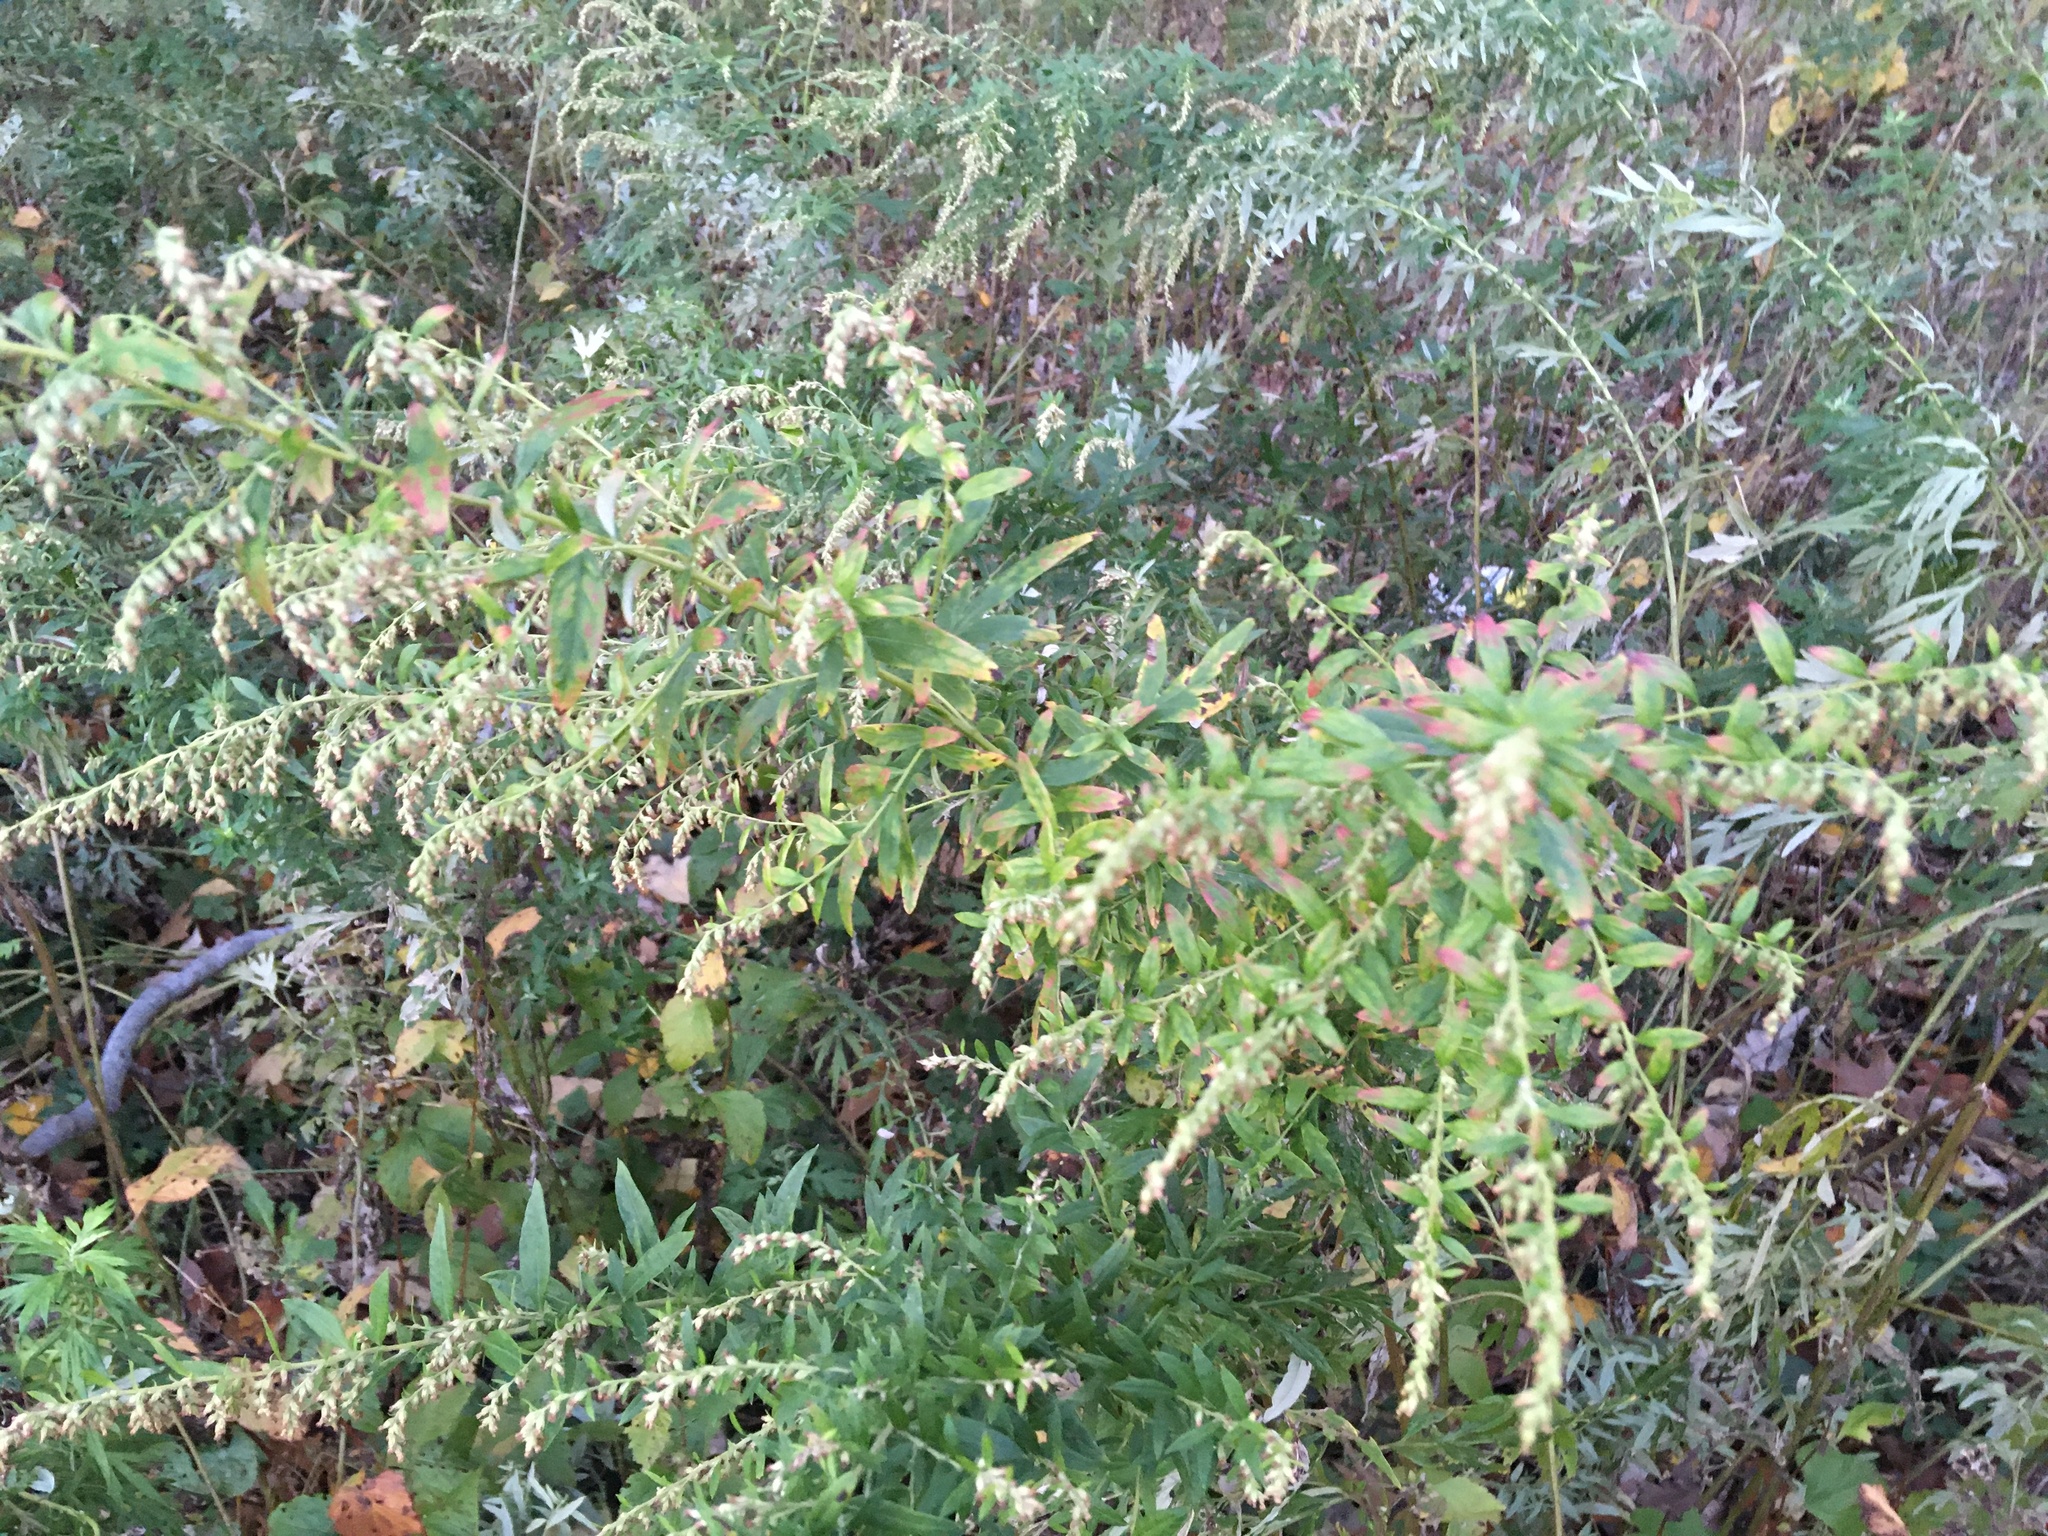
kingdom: Plantae
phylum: Tracheophyta
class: Magnoliopsida
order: Asterales
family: Asteraceae
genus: Artemisia
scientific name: Artemisia vulgaris
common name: Mugwort
